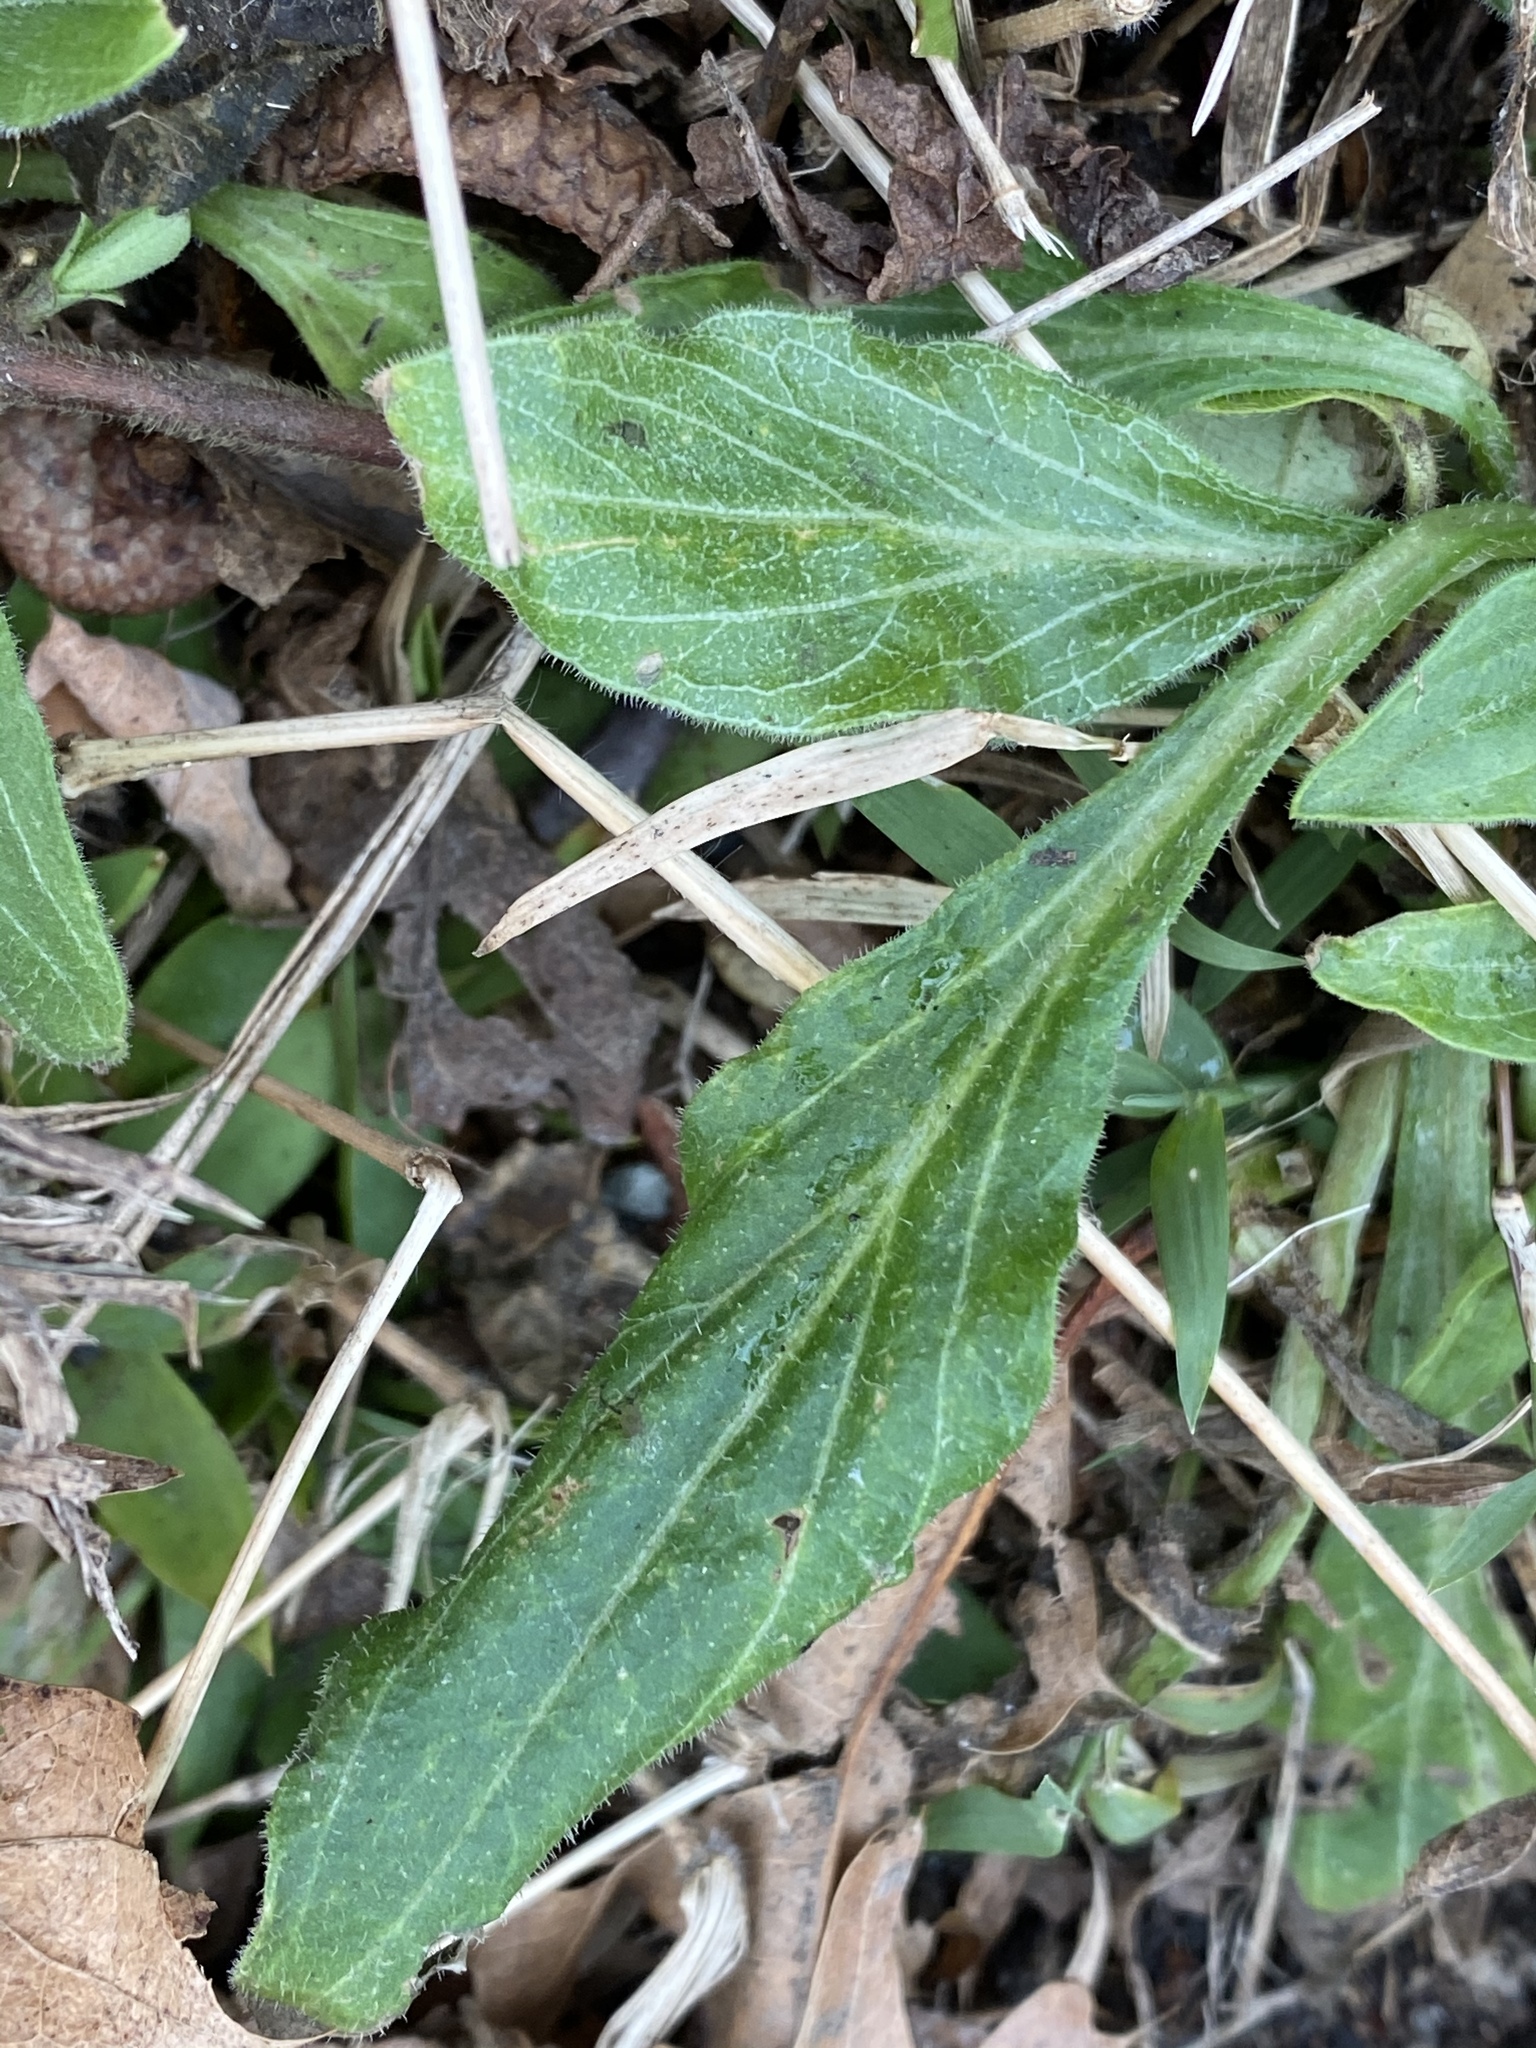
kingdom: Plantae
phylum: Tracheophyta
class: Magnoliopsida
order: Caryophyllales
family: Caryophyllaceae
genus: Silene
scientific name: Silene latifolia
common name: White campion
